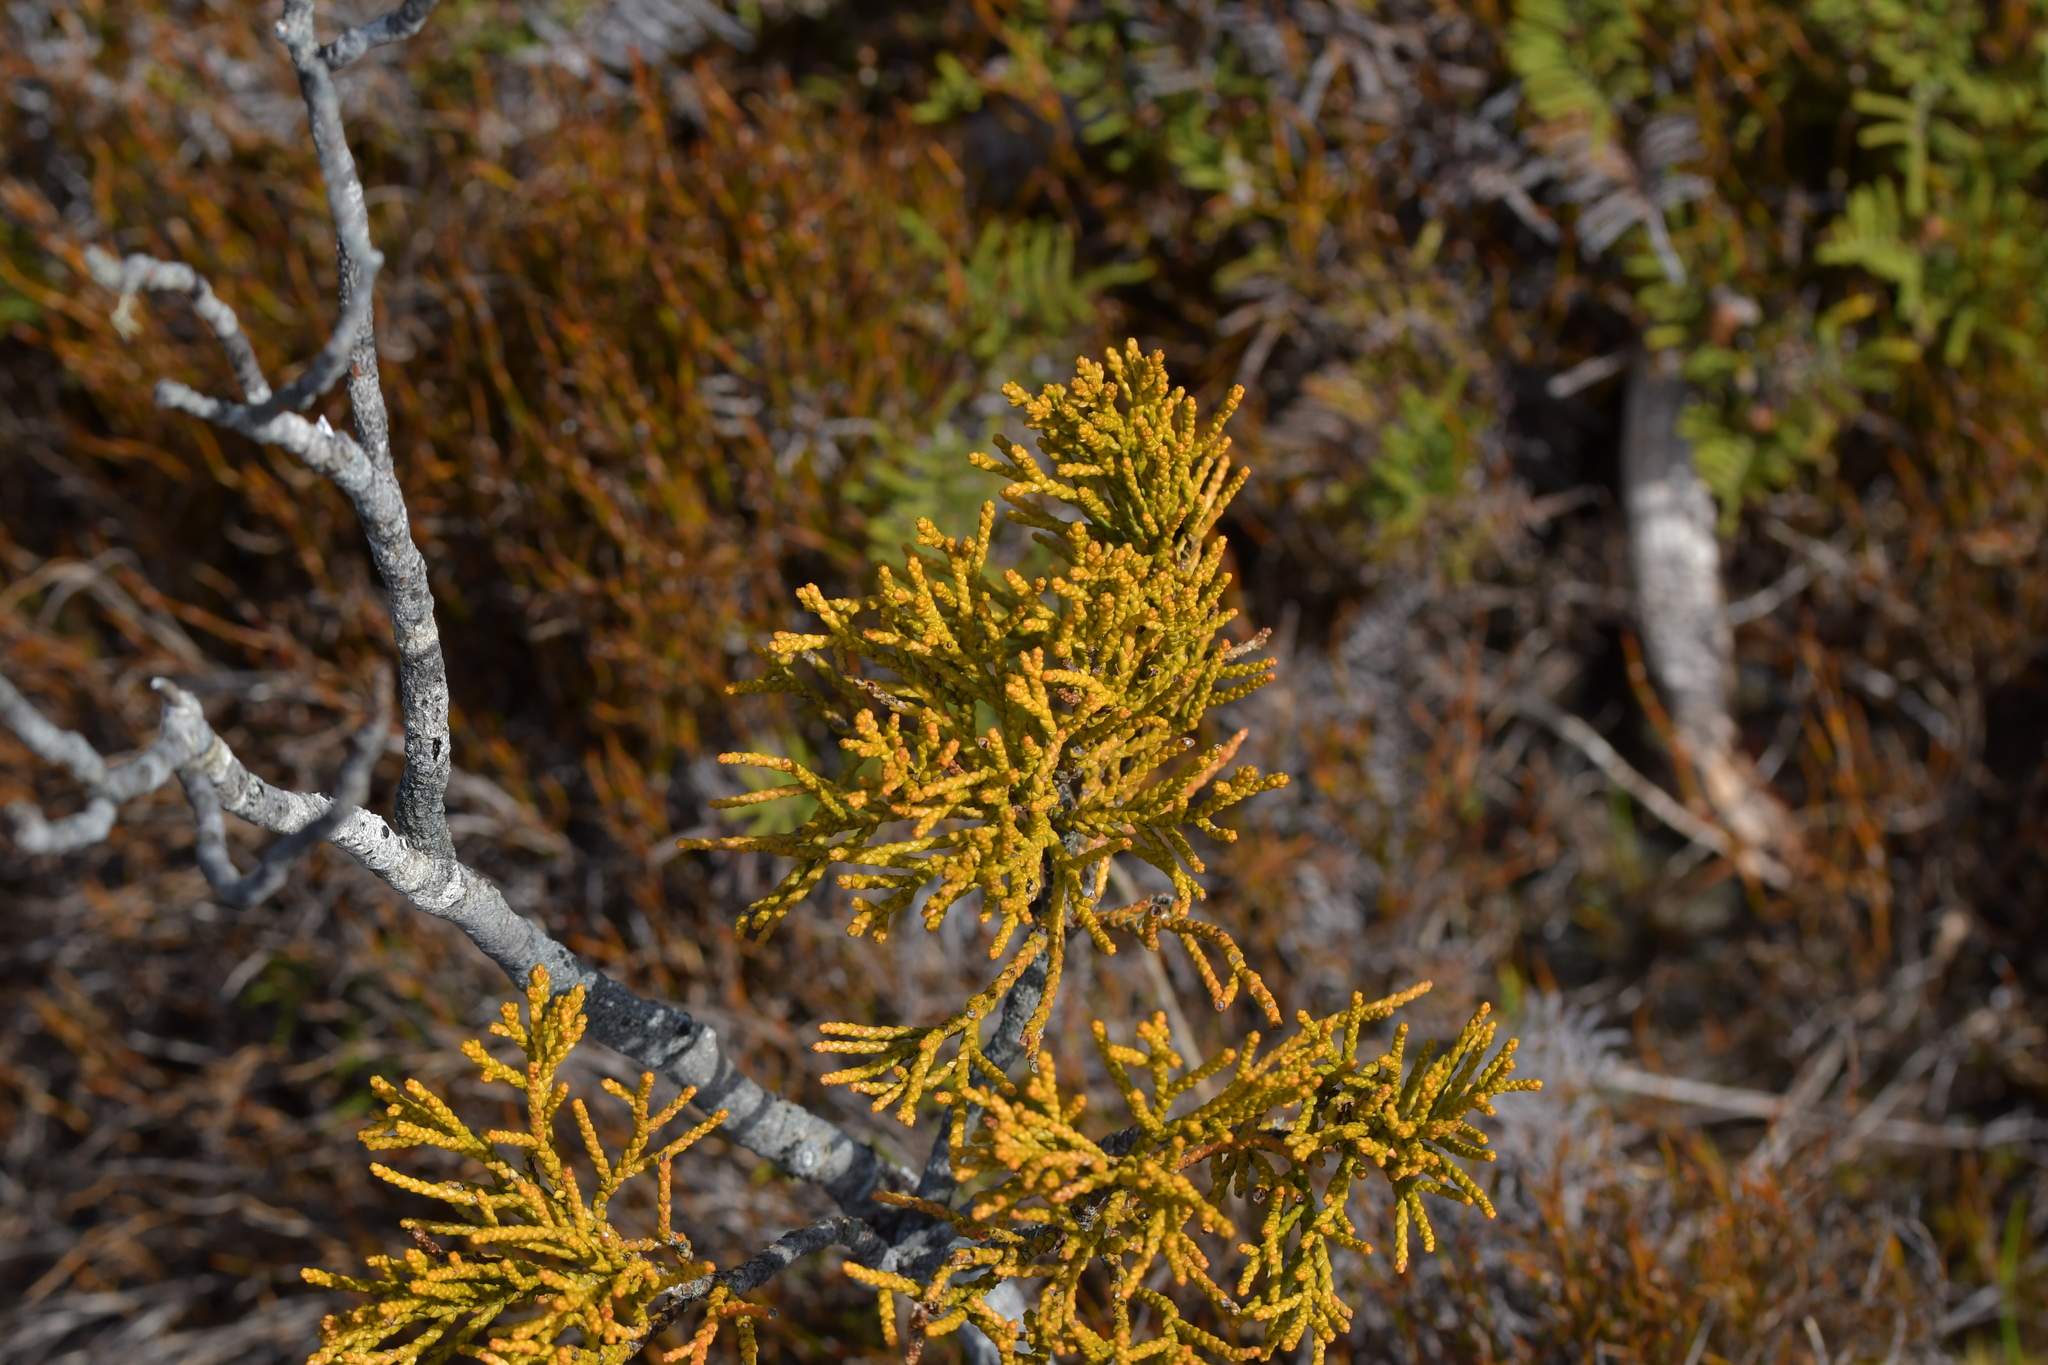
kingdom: Plantae
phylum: Tracheophyta
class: Pinopsida
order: Pinales
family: Podocarpaceae
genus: Halocarpus
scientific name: Halocarpus bidwillii
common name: Bog pine
